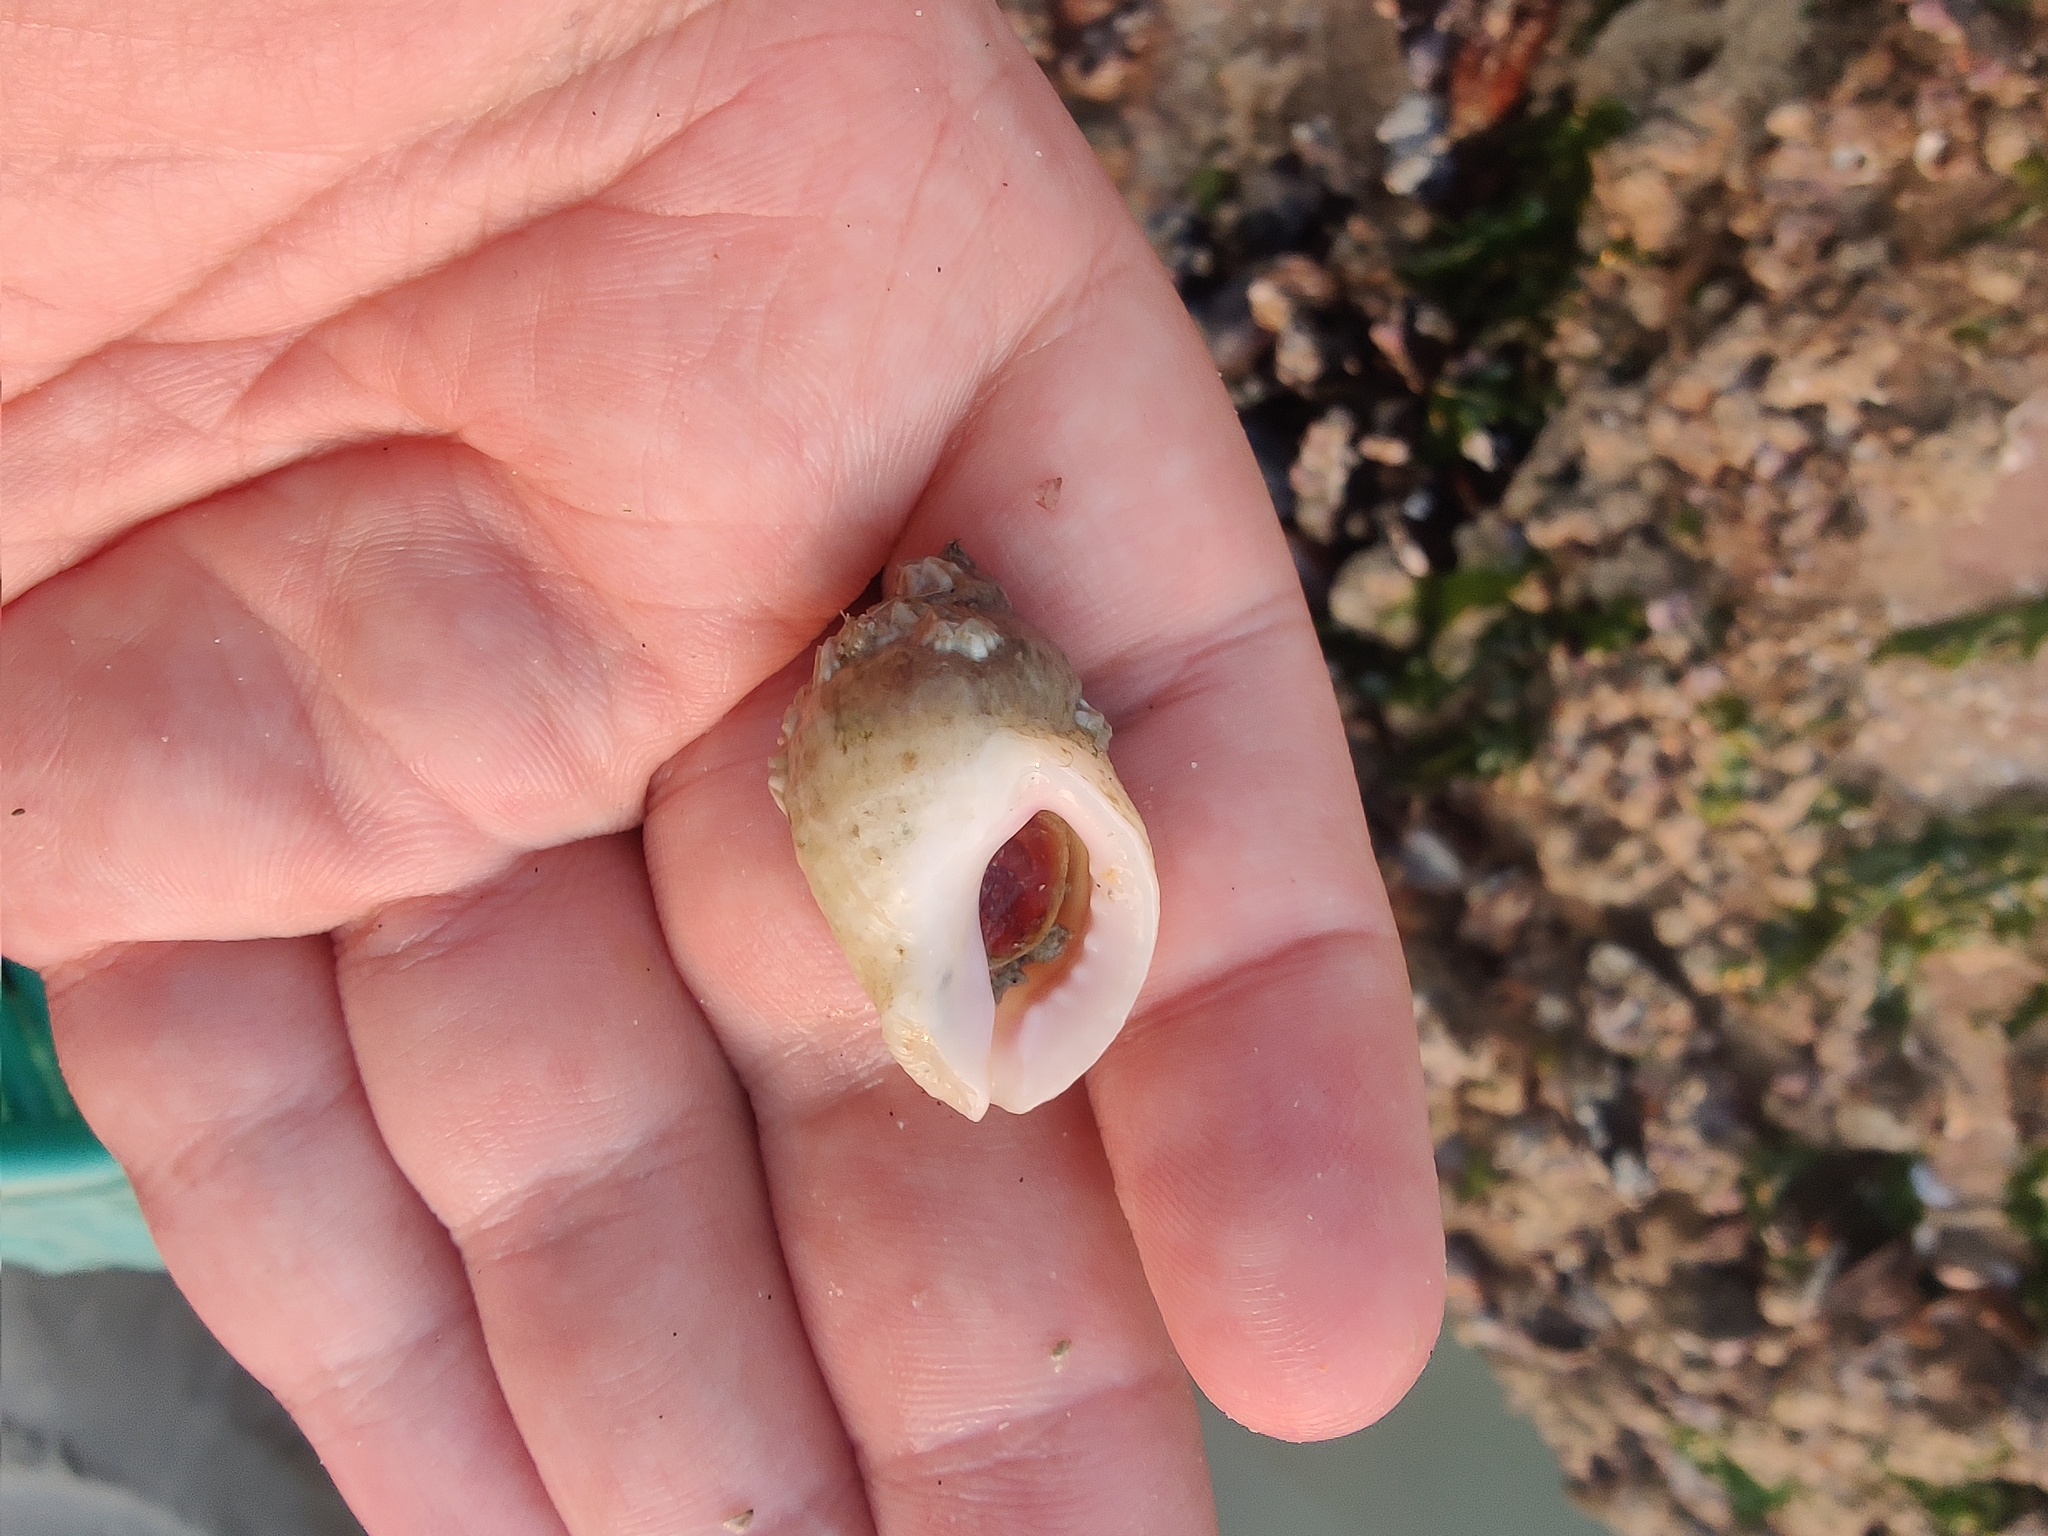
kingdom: Animalia
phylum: Mollusca
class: Gastropoda
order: Neogastropoda
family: Muricidae
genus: Nucella
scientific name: Nucella lapillus
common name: Dog whelk
